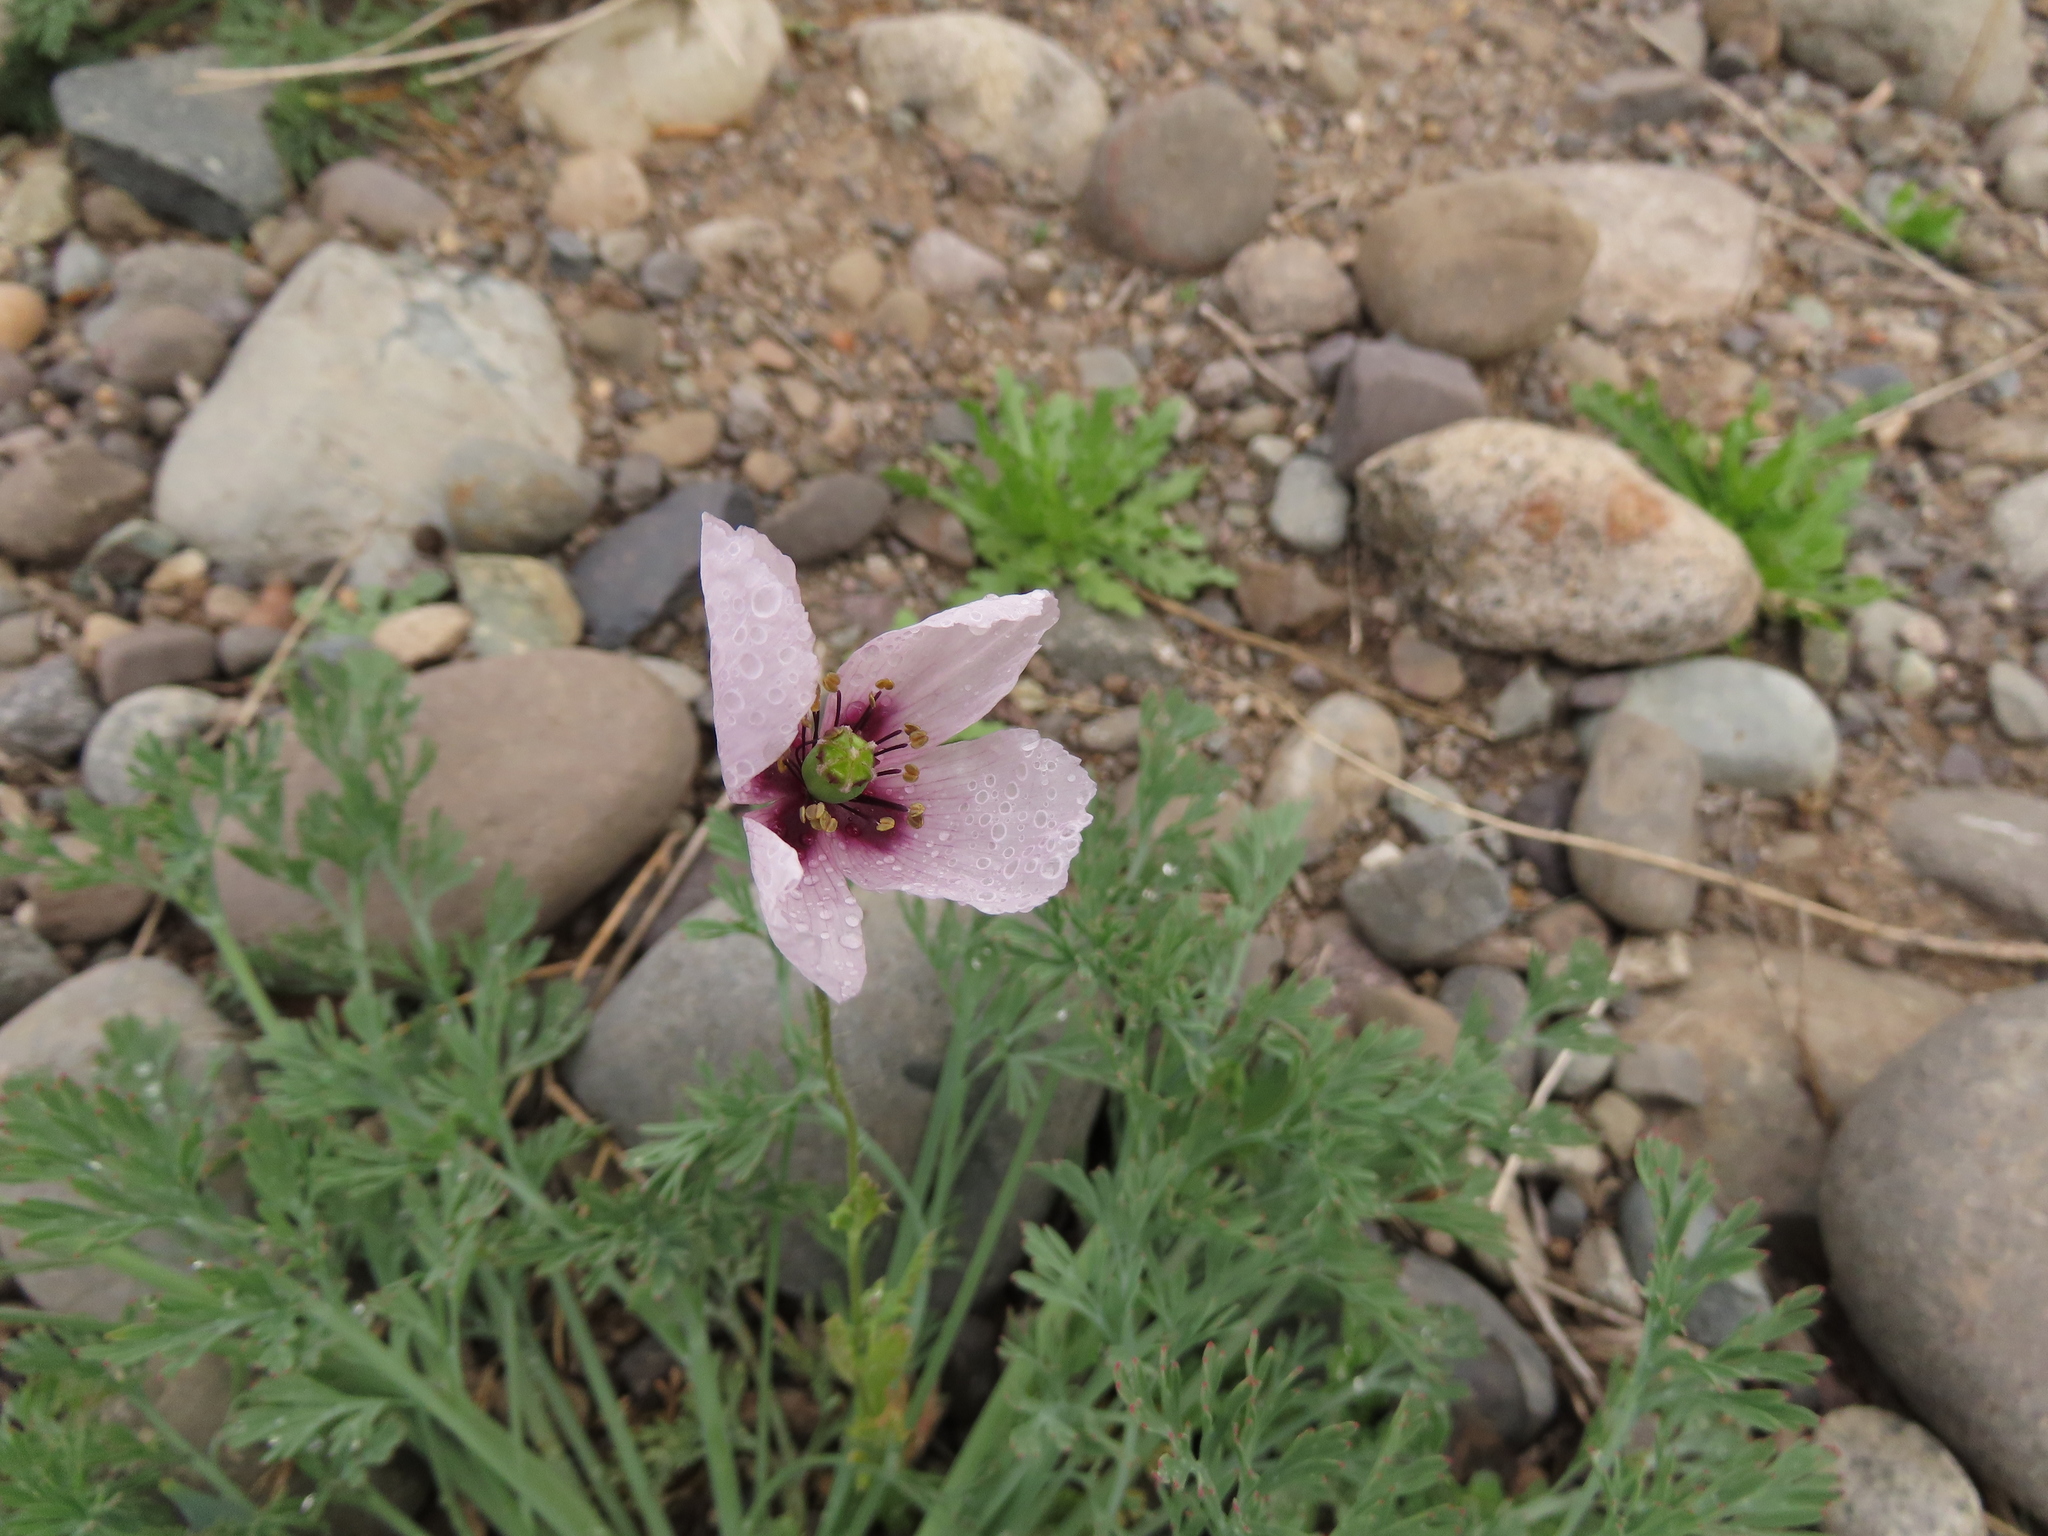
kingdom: Plantae
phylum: Tracheophyta
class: Magnoliopsida
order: Ranunculales
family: Papaveraceae
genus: Papaver
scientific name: Papaver somniferum
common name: Opium poppy
